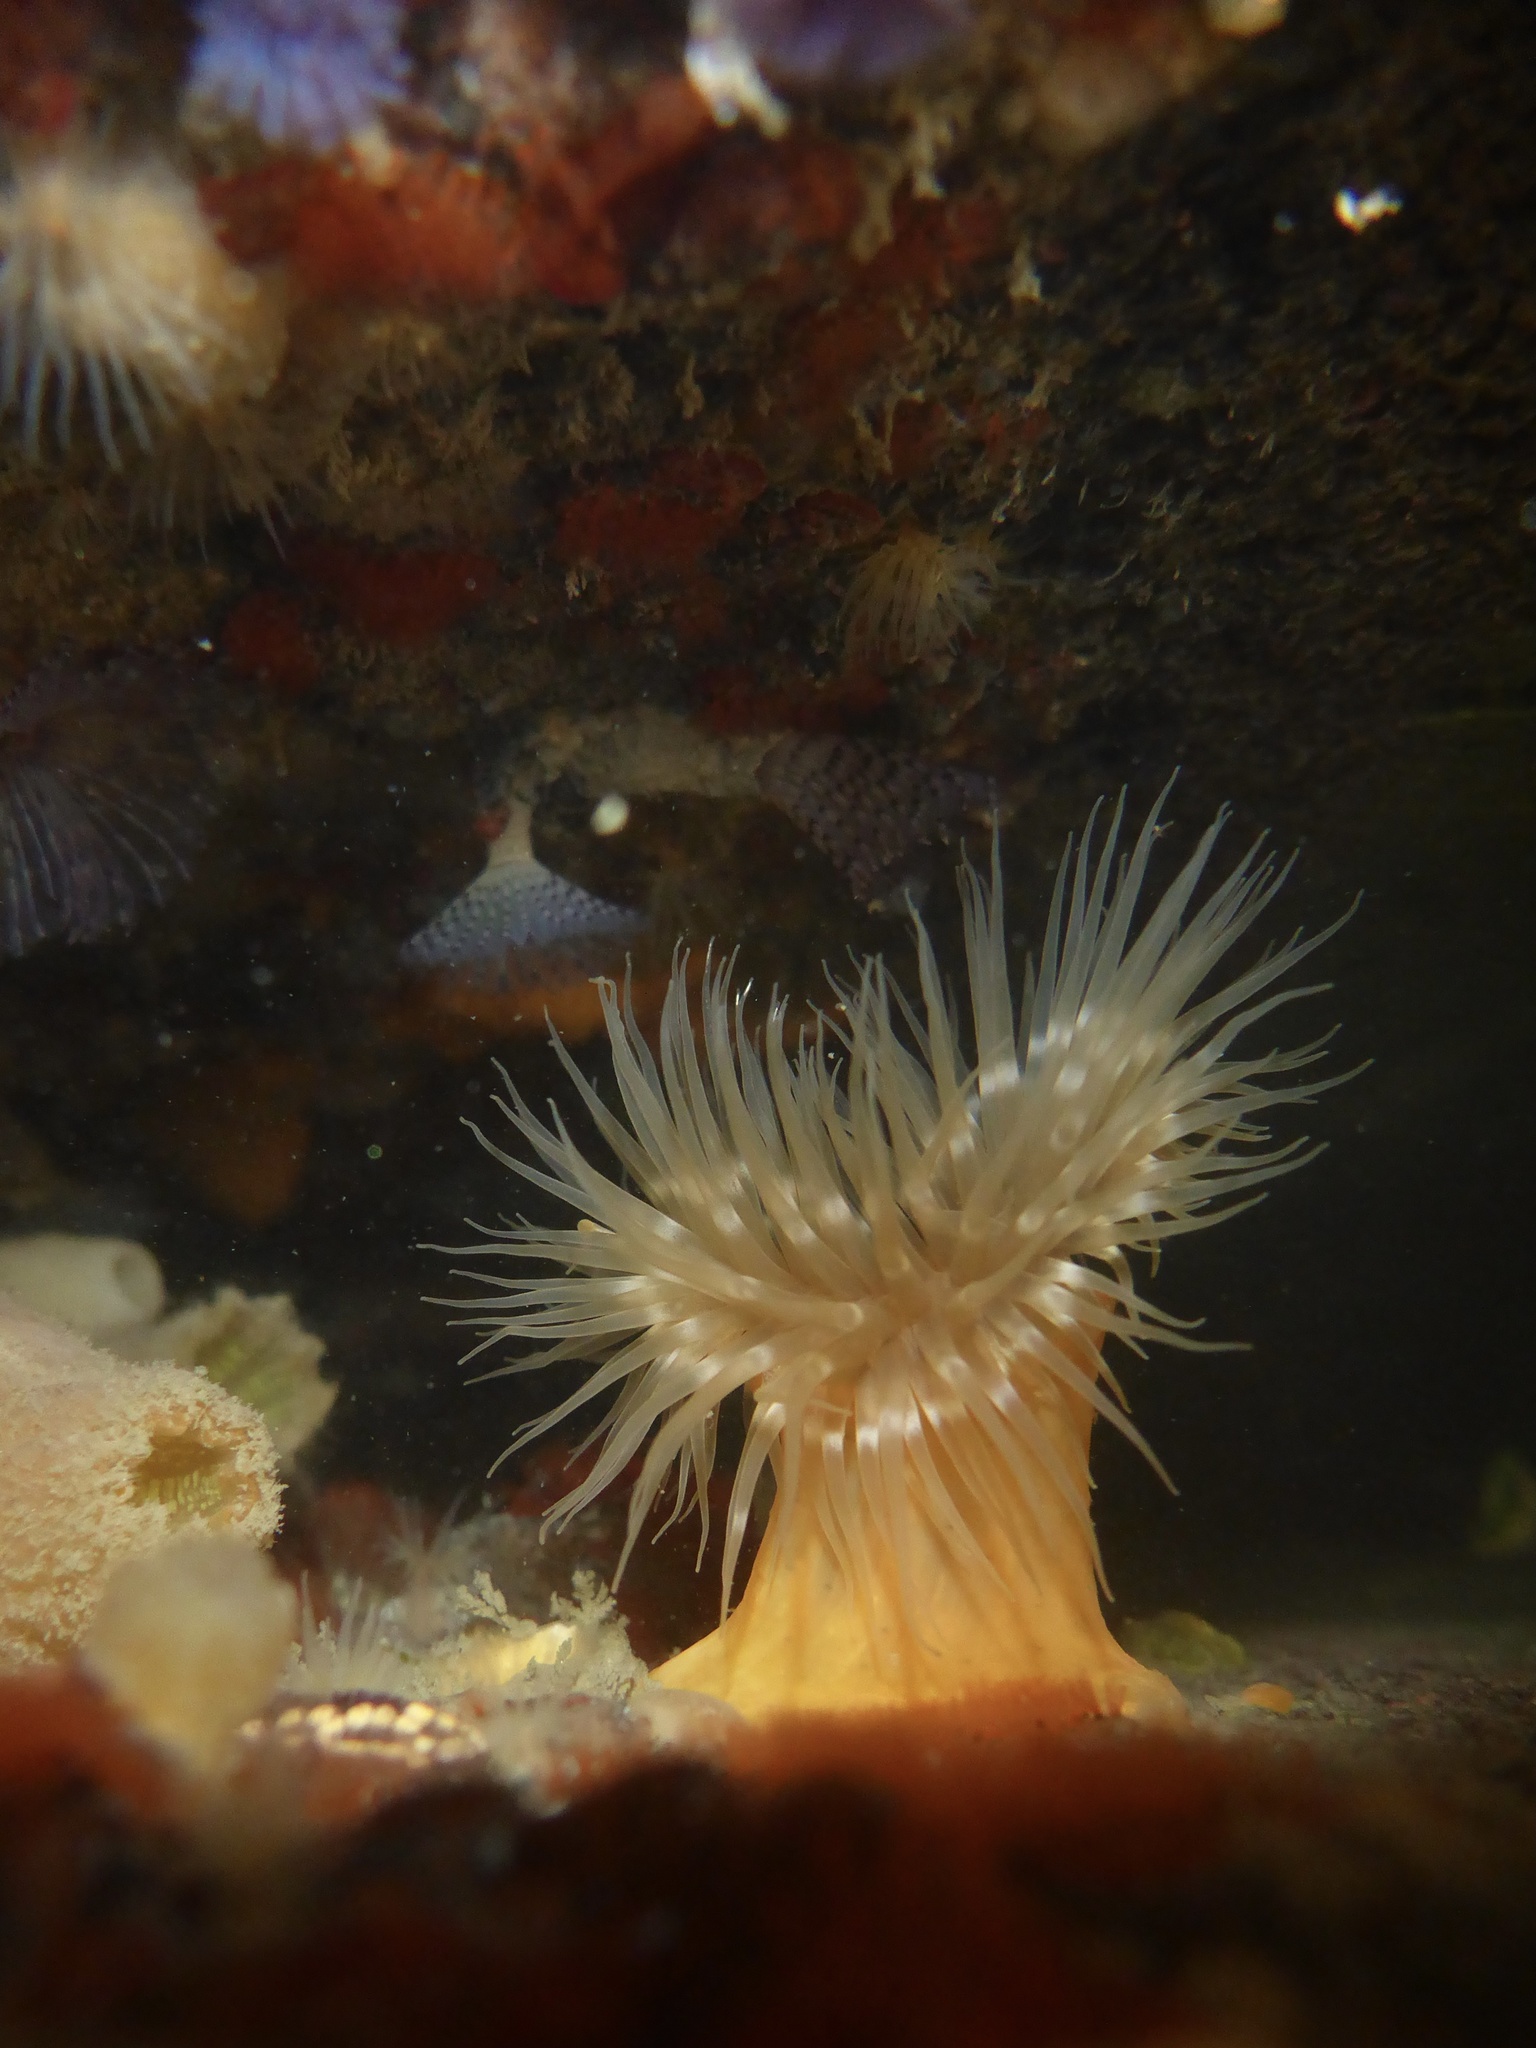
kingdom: Animalia
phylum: Cnidaria
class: Anthozoa
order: Actiniaria
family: Metridiidae
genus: Metridium
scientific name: Metridium senile
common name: Clonal plumose anemone
